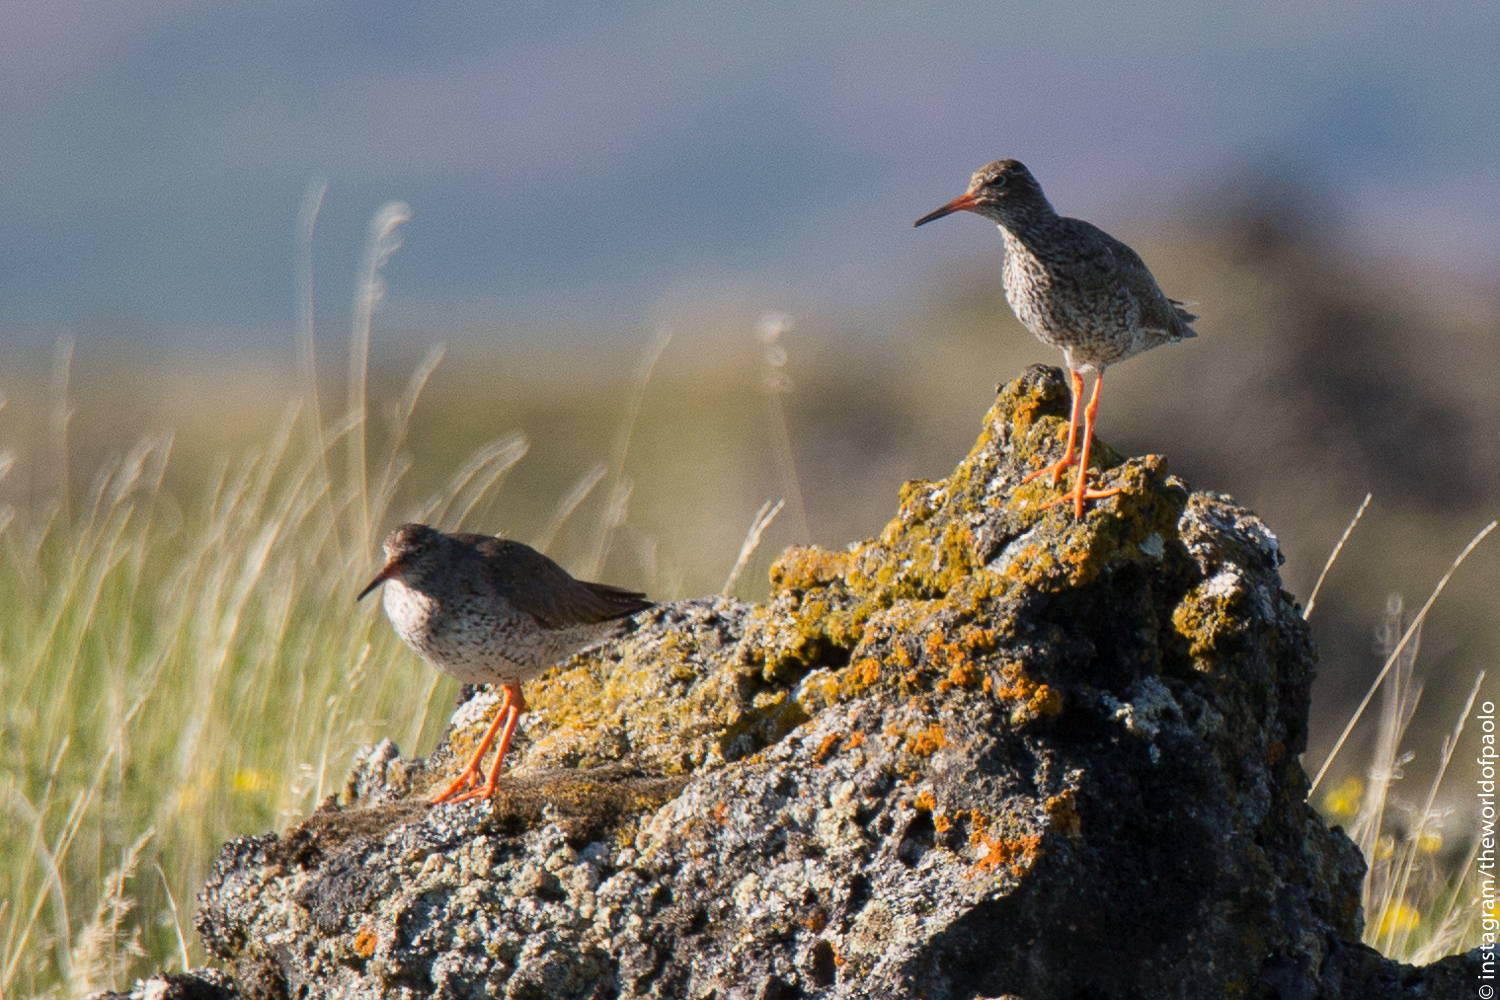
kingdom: Animalia
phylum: Chordata
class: Aves
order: Charadriiformes
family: Scolopacidae
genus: Tringa
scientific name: Tringa totanus
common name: Common redshank
